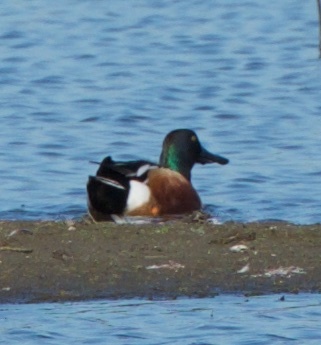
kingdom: Animalia
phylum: Chordata
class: Aves
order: Anseriformes
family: Anatidae
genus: Spatula
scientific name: Spatula clypeata
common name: Northern shoveler
